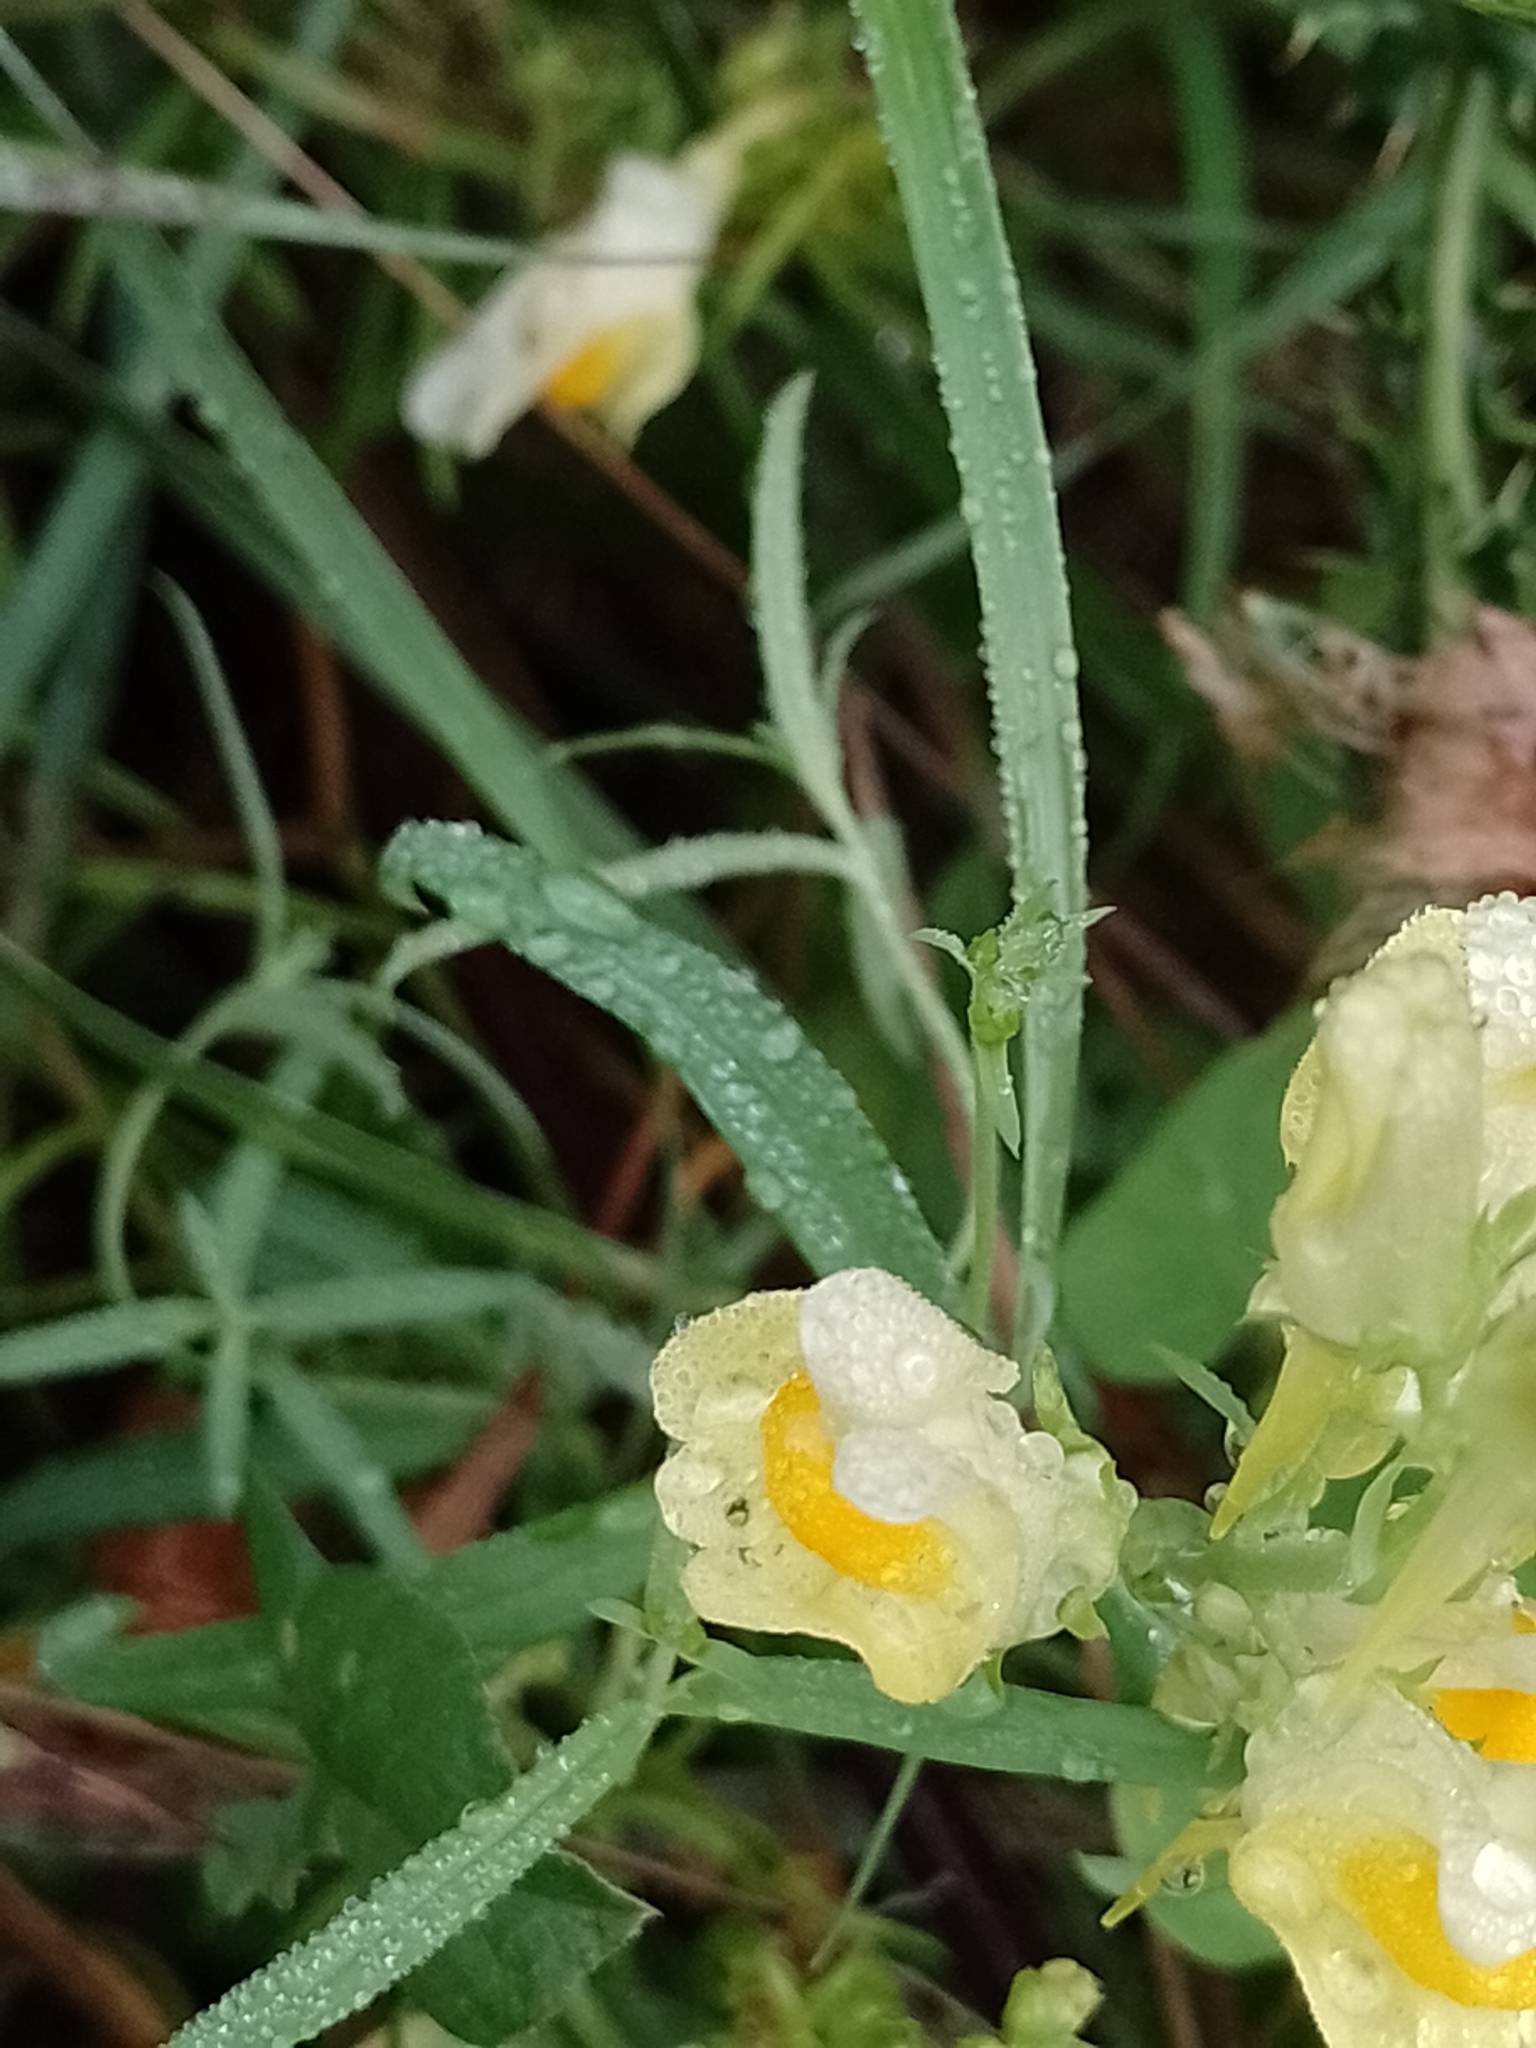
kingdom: Plantae
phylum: Tracheophyta
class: Magnoliopsida
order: Lamiales
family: Plantaginaceae
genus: Linaria
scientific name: Linaria vulgaris
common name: Butter and eggs
